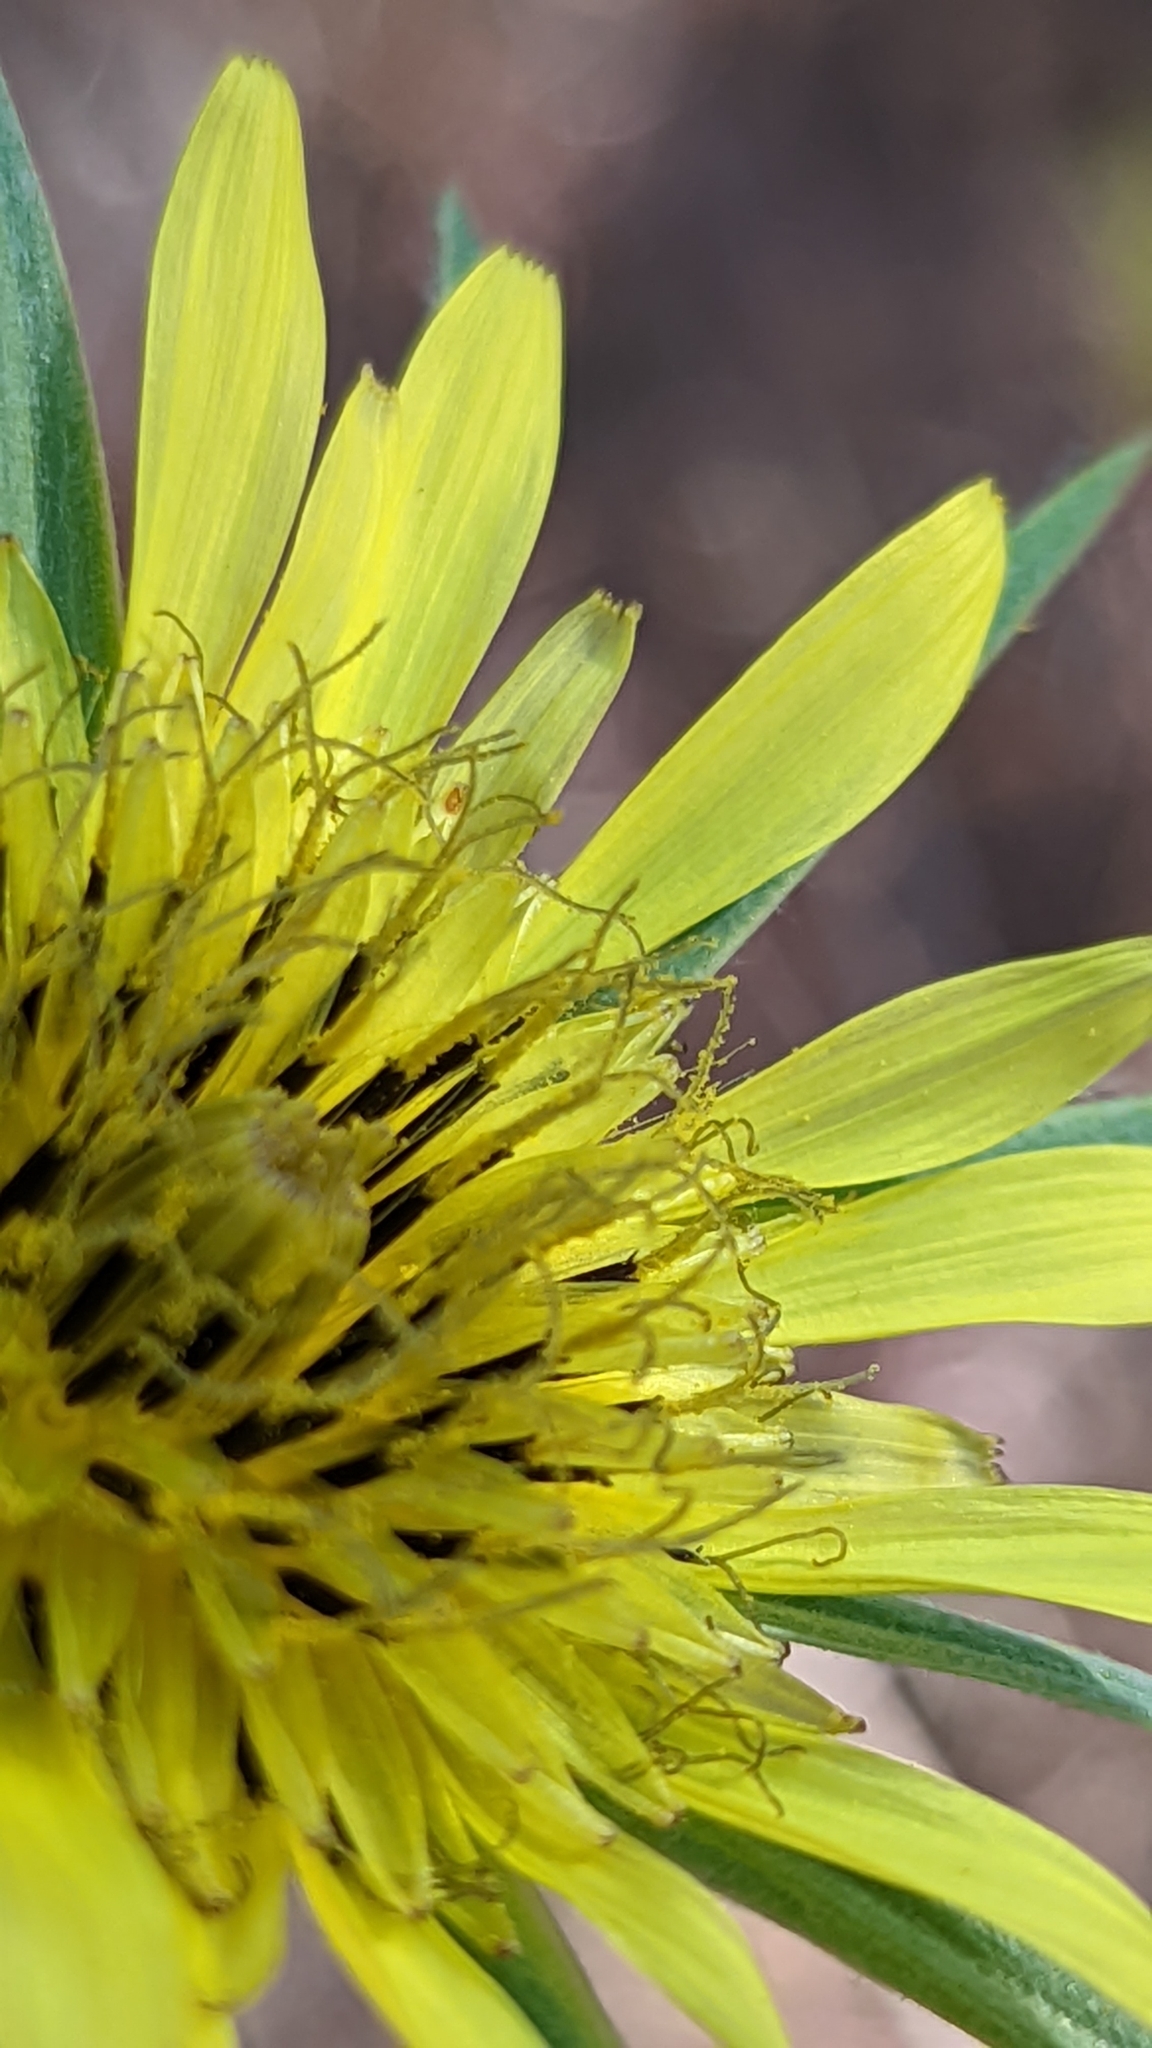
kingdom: Plantae
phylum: Tracheophyta
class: Magnoliopsida
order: Asterales
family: Asteraceae
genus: Tragopogon
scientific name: Tragopogon dubius
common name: Yellow salsify
